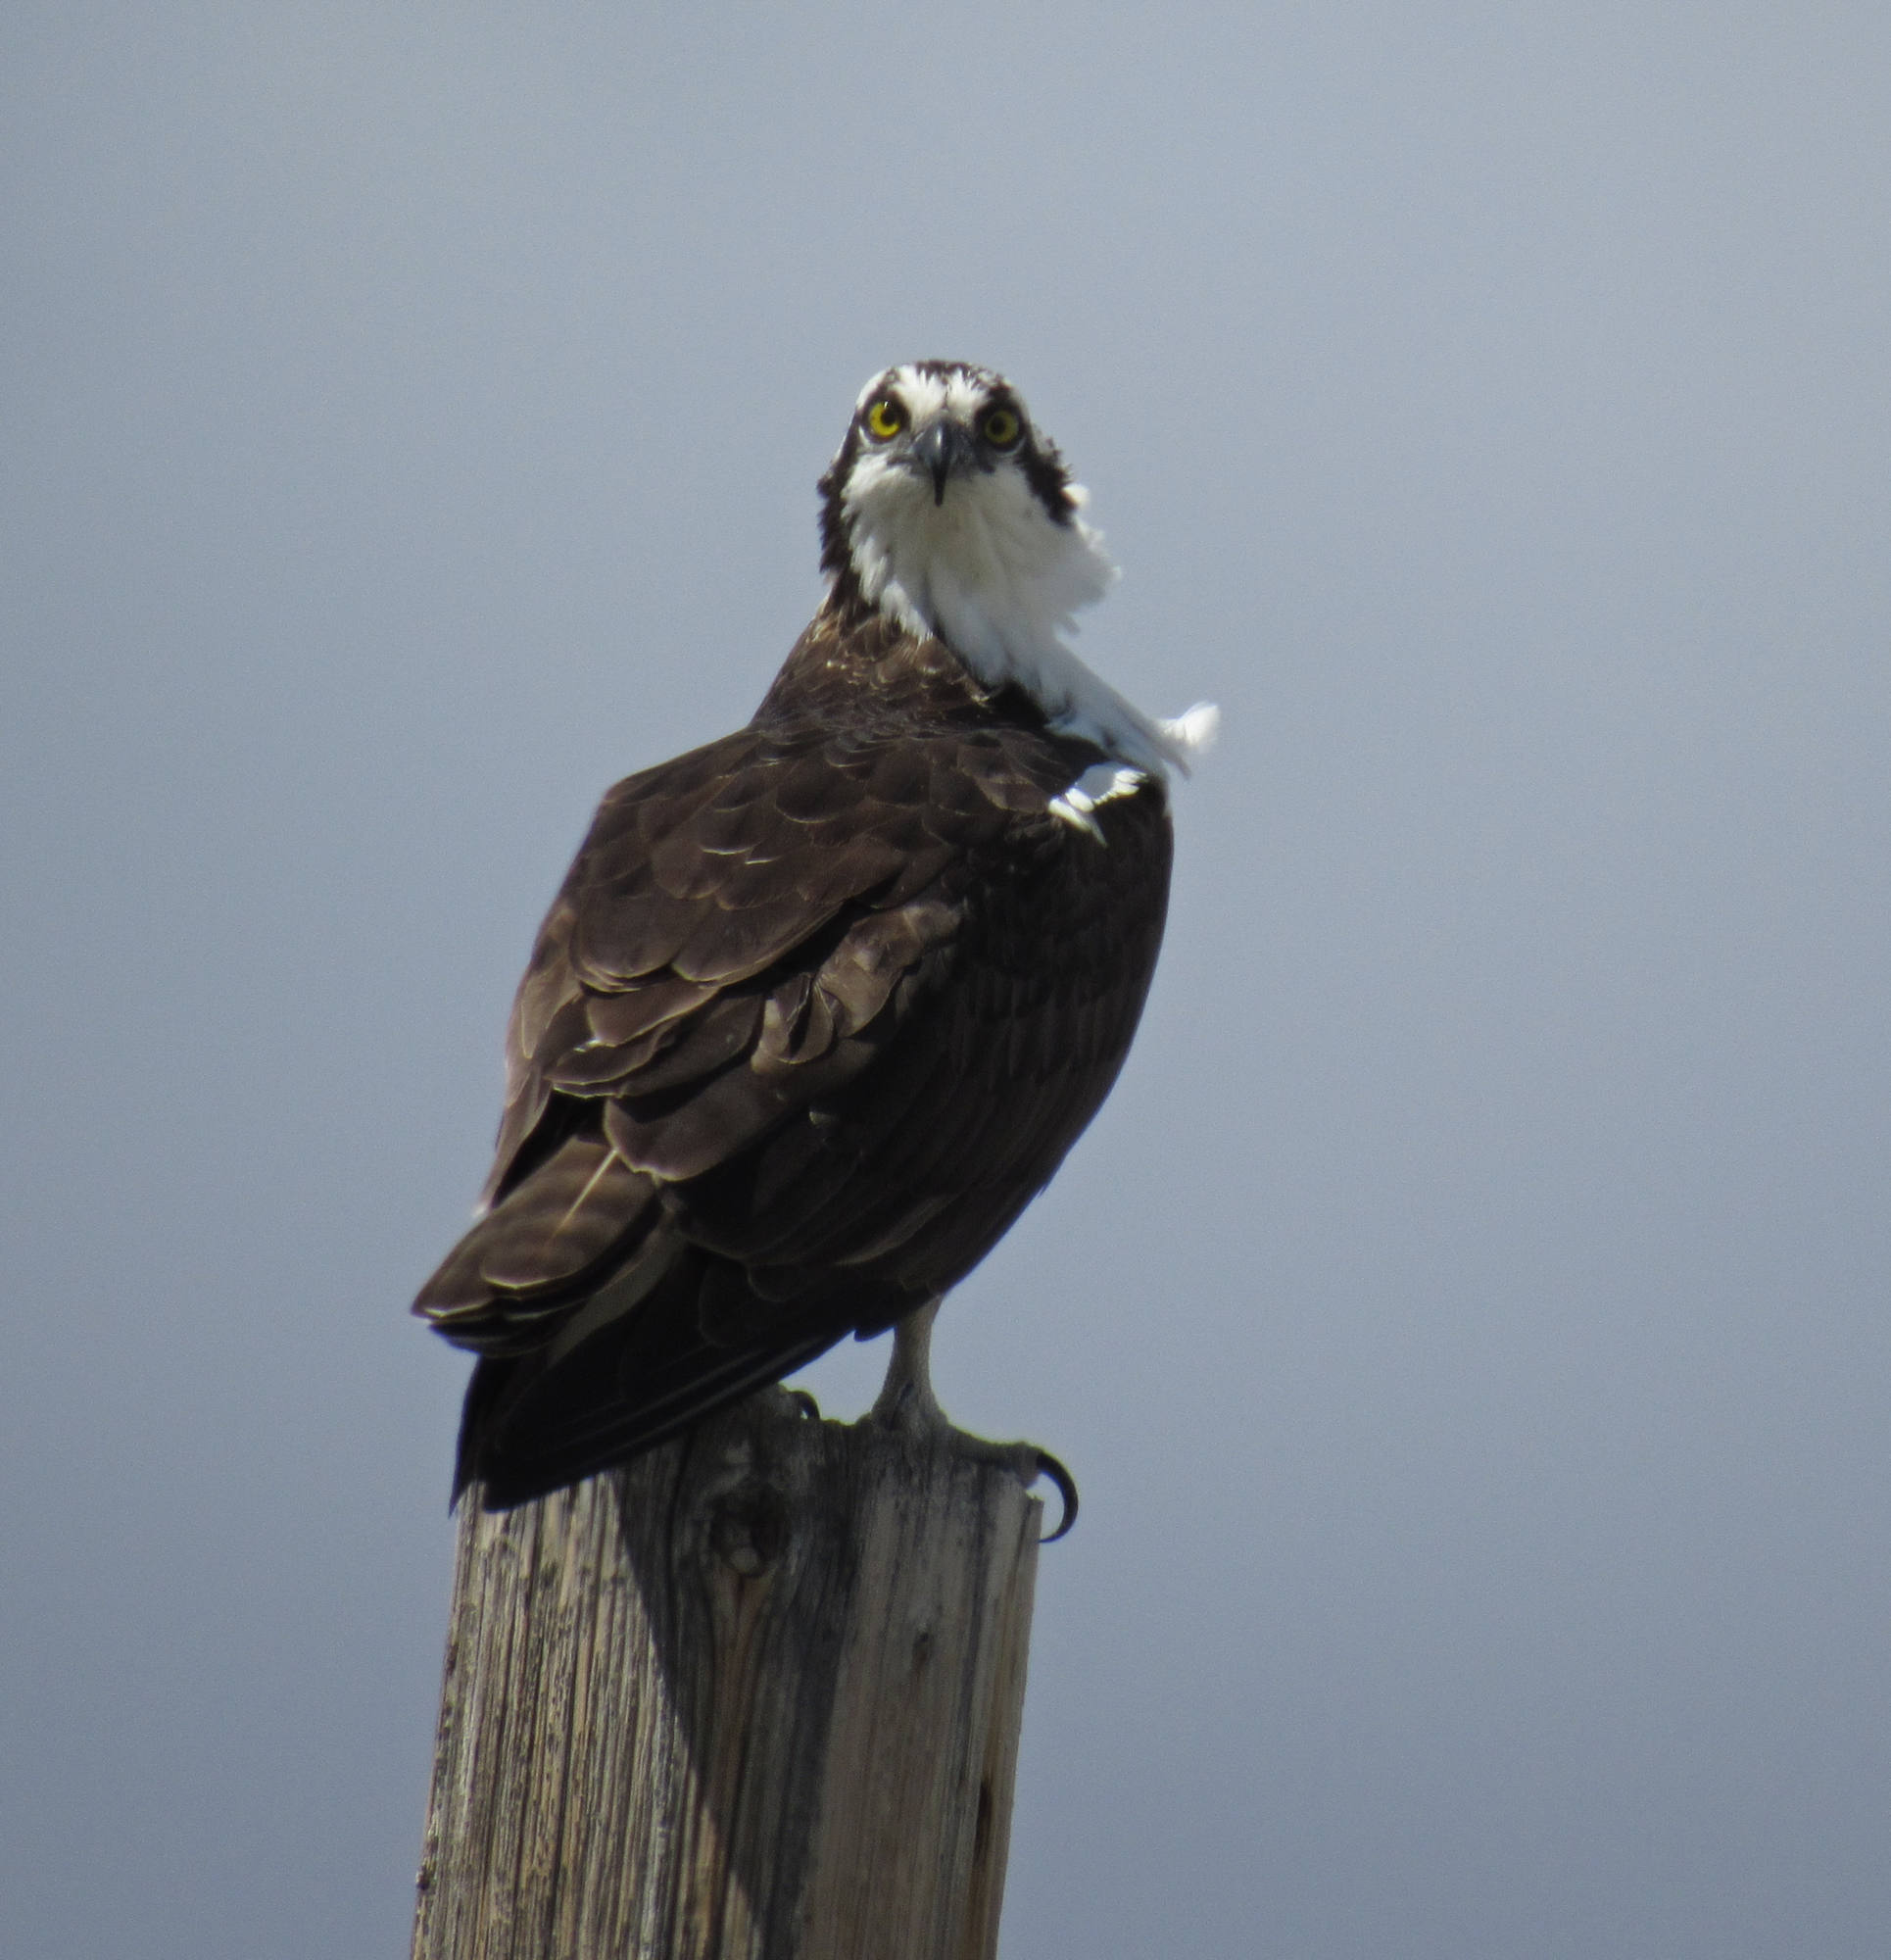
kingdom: Animalia
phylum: Chordata
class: Aves
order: Accipitriformes
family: Pandionidae
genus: Pandion
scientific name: Pandion haliaetus
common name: Osprey
